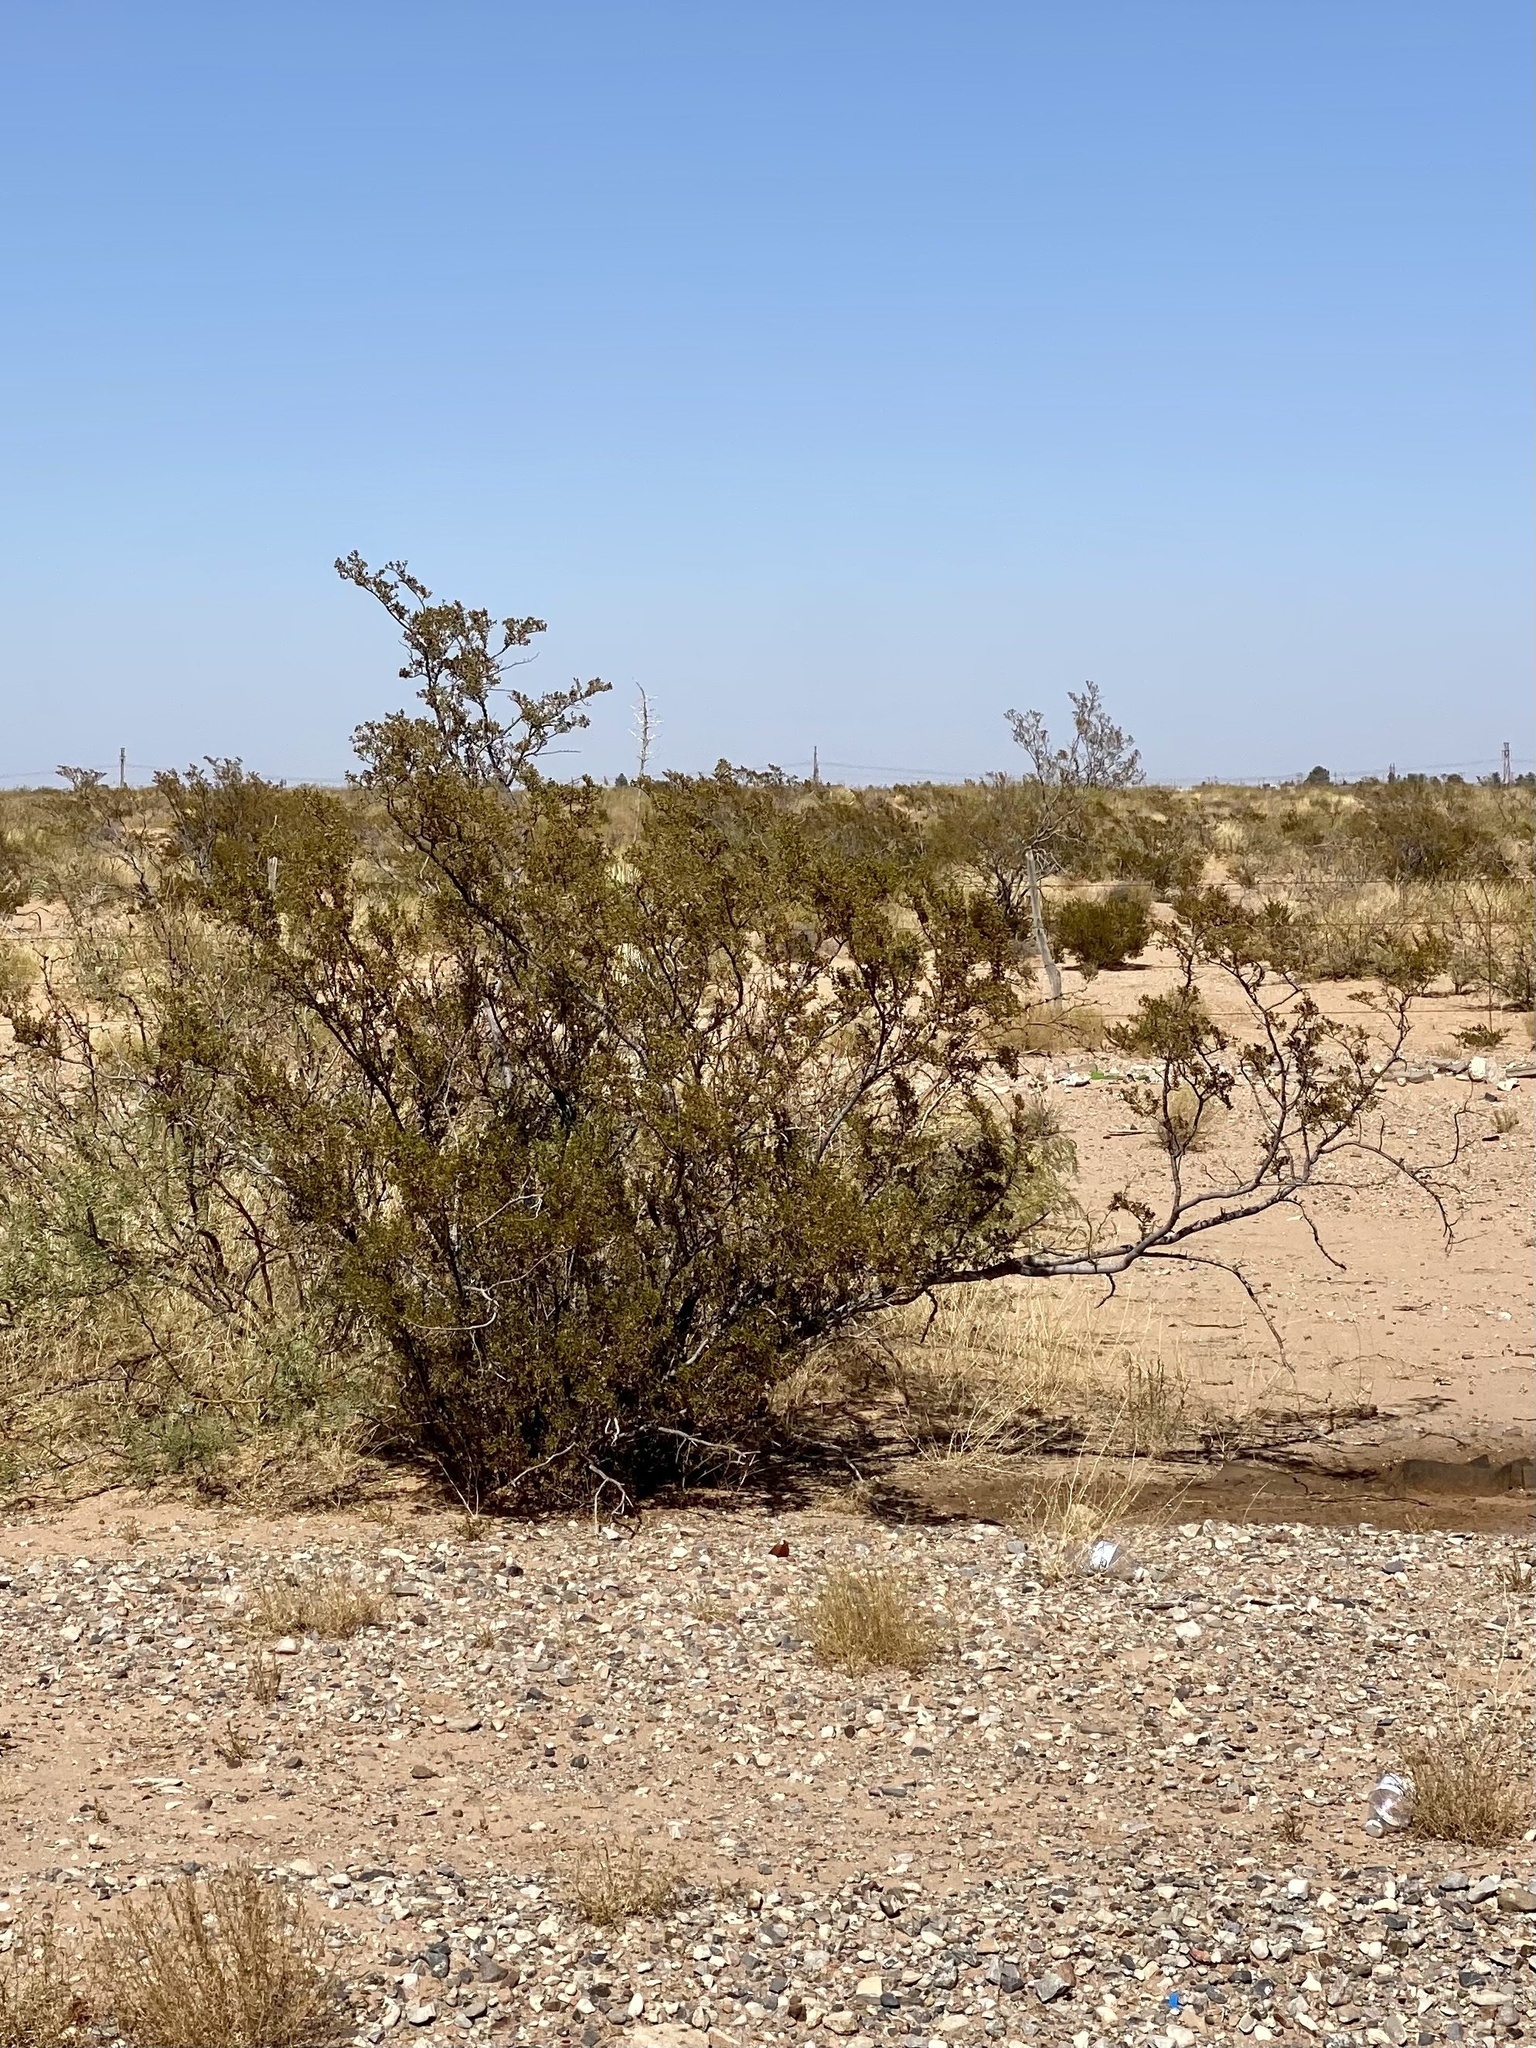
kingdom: Plantae
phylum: Tracheophyta
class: Magnoliopsida
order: Zygophyllales
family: Zygophyllaceae
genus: Larrea
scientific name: Larrea tridentata
